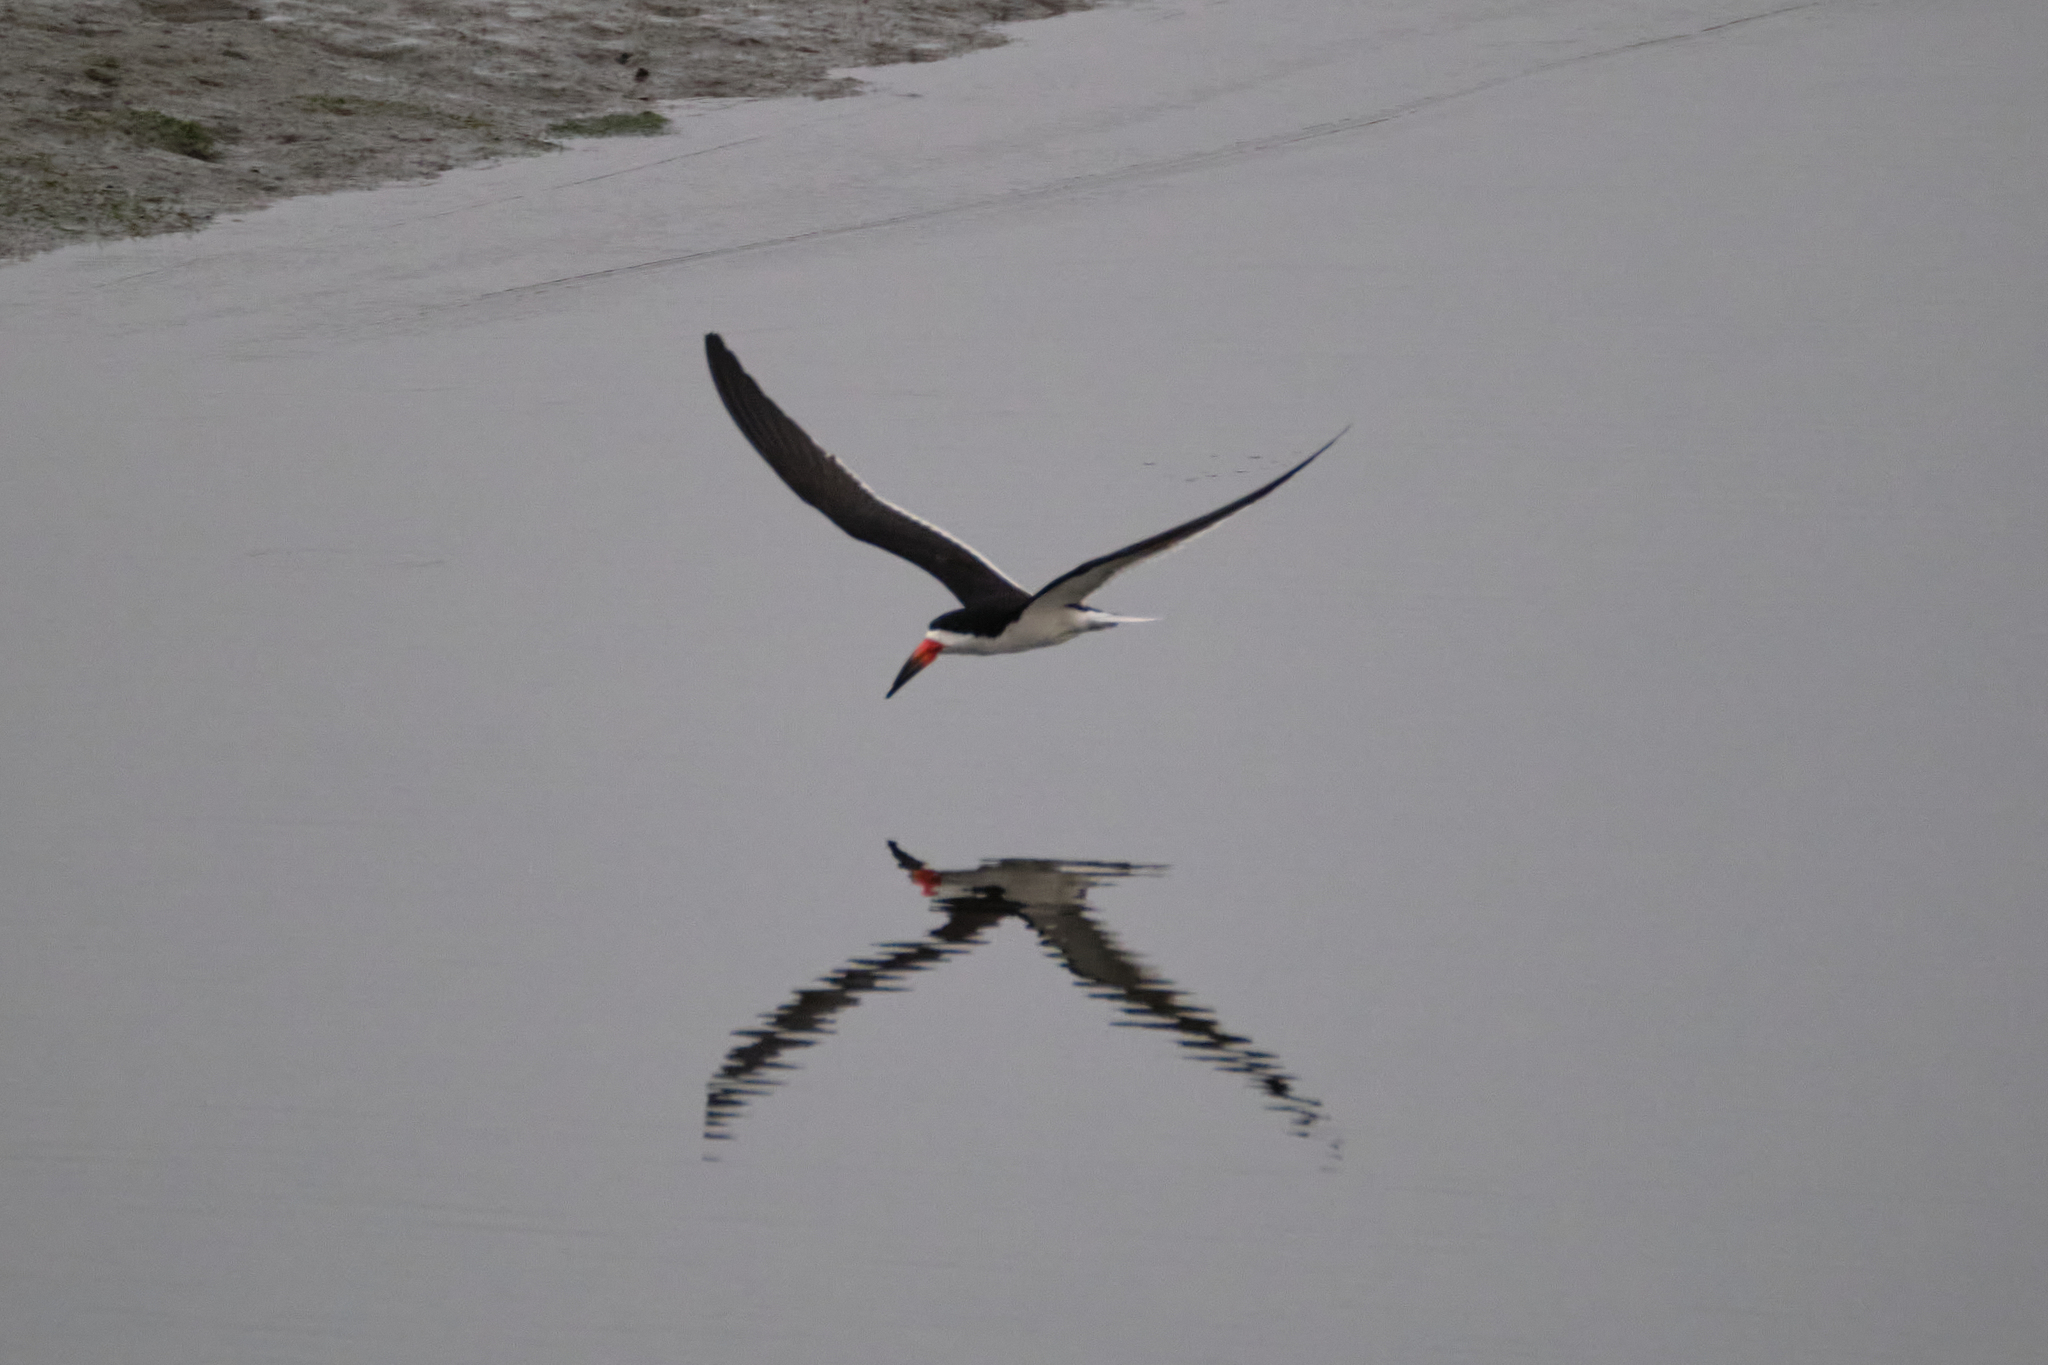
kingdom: Animalia
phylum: Chordata
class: Aves
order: Charadriiformes
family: Laridae
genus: Rynchops
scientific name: Rynchops niger
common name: Black skimmer
